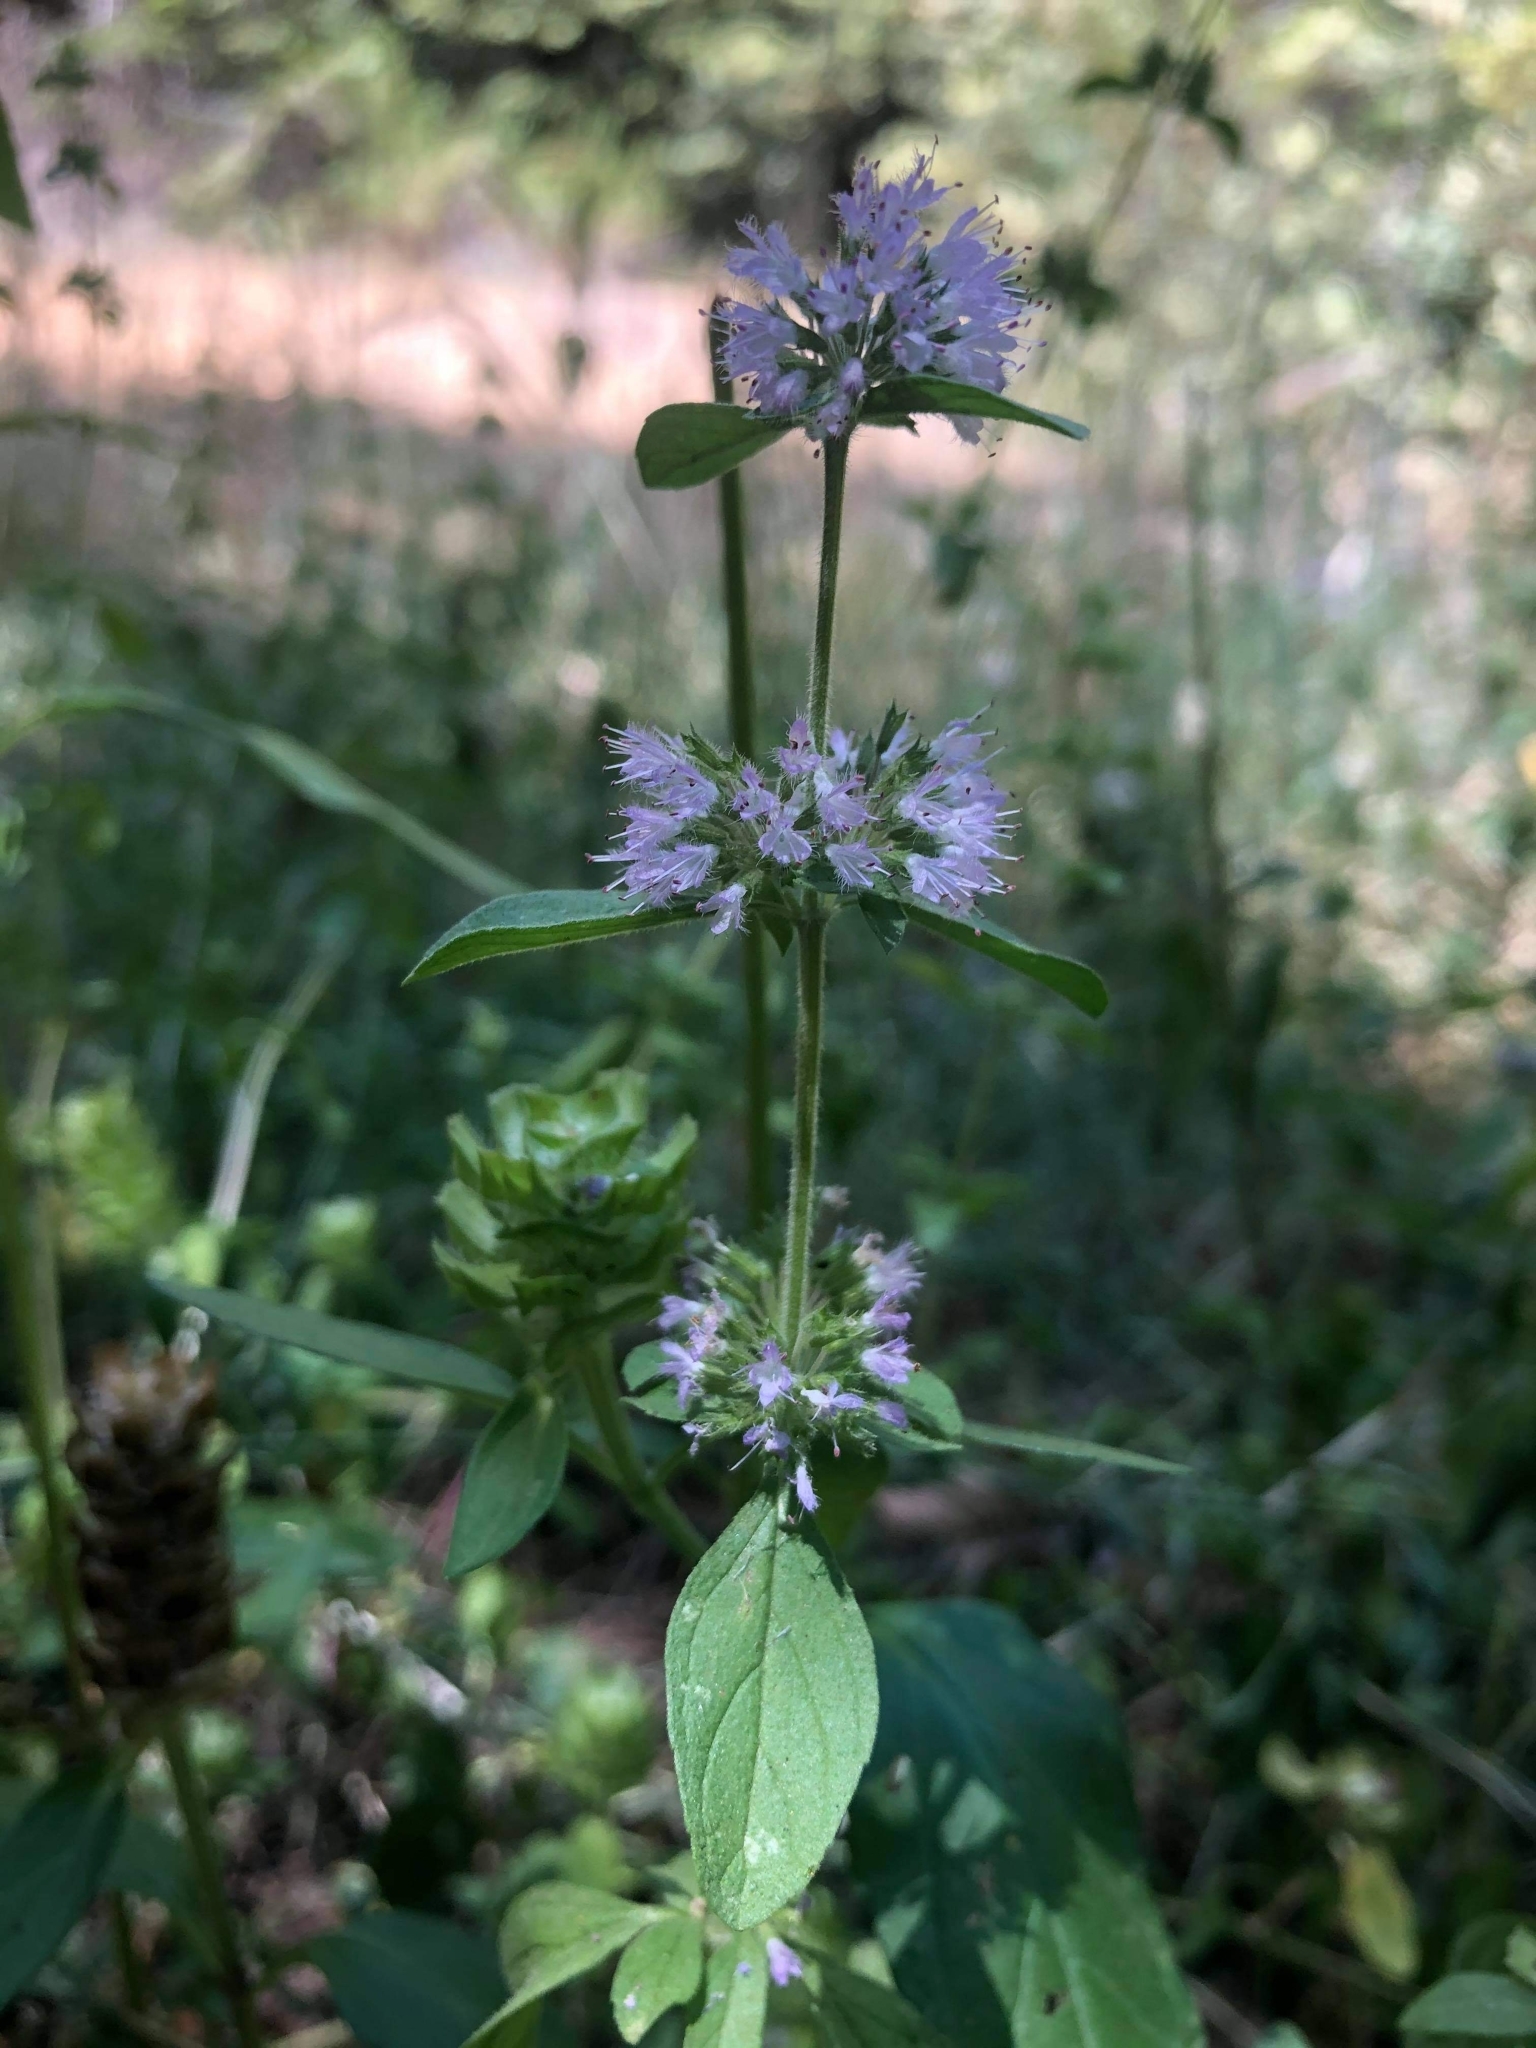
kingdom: Plantae
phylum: Tracheophyta
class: Magnoliopsida
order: Lamiales
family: Lamiaceae
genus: Mentha
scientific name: Mentha pulegium
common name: Pennyroyal
